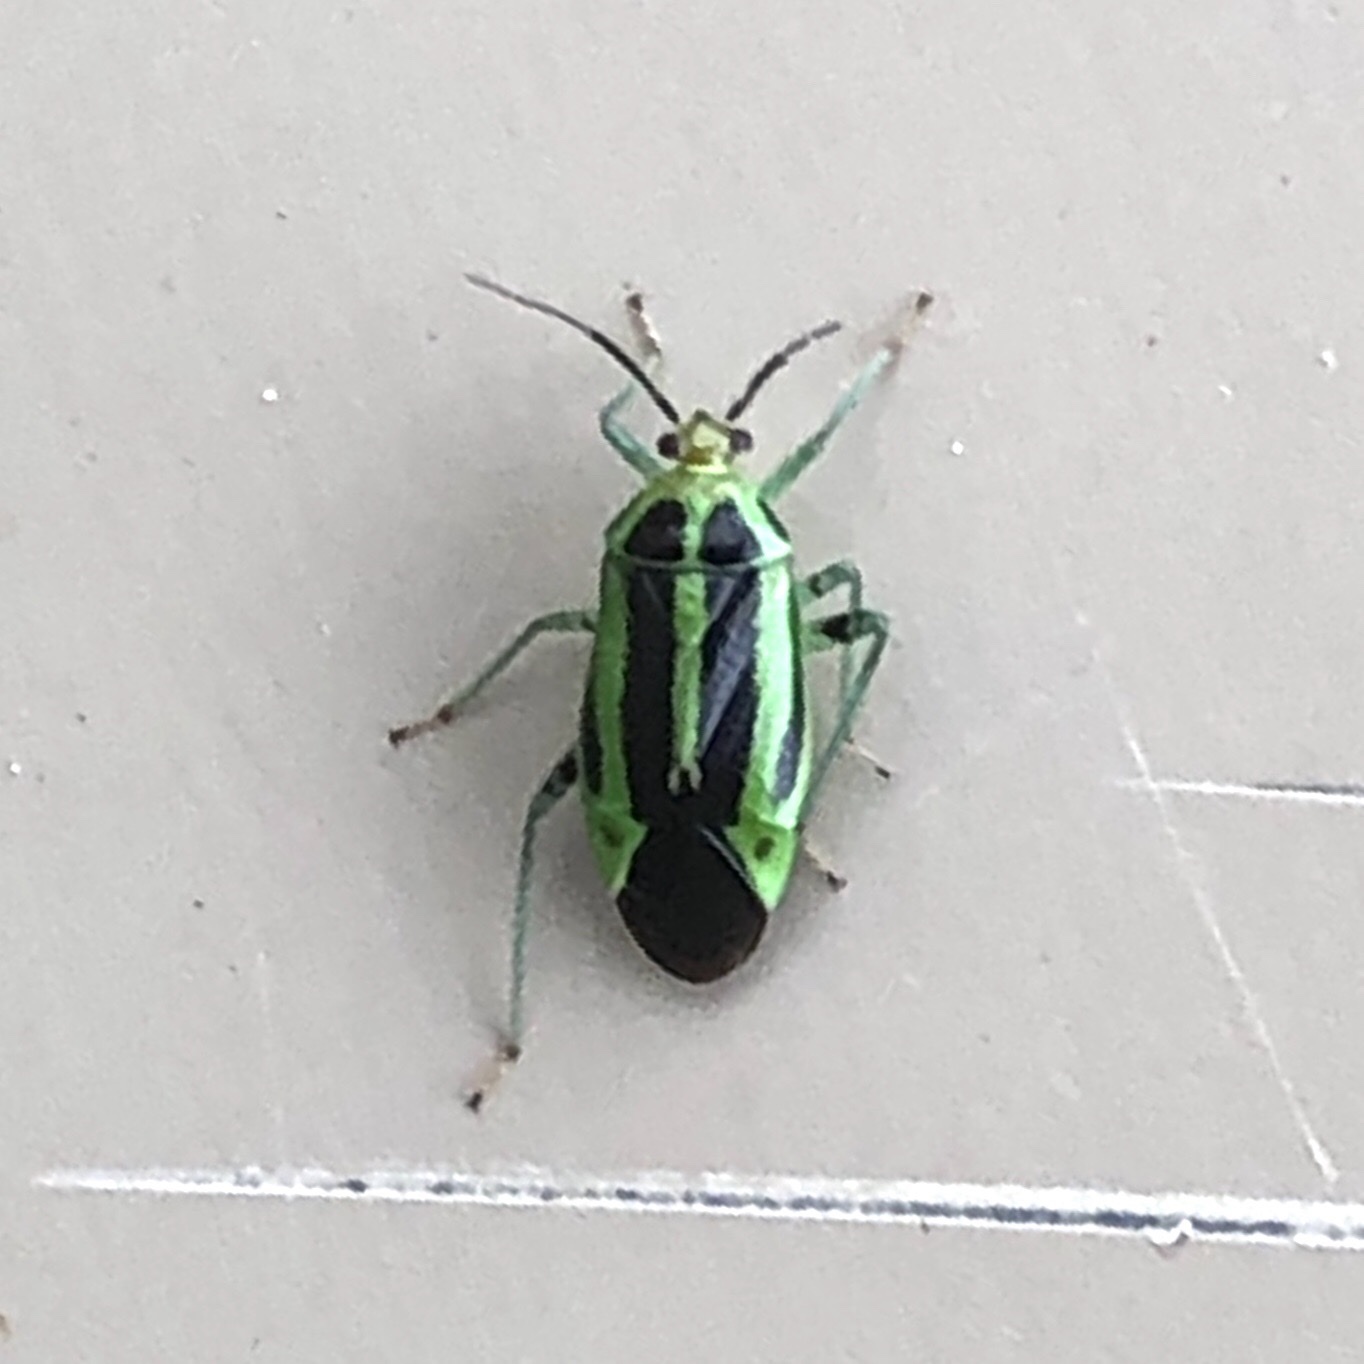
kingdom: Animalia
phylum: Arthropoda
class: Insecta
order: Hemiptera
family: Miridae
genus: Poecilocapsus
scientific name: Poecilocapsus lineatus
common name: Four-lined plant bug
